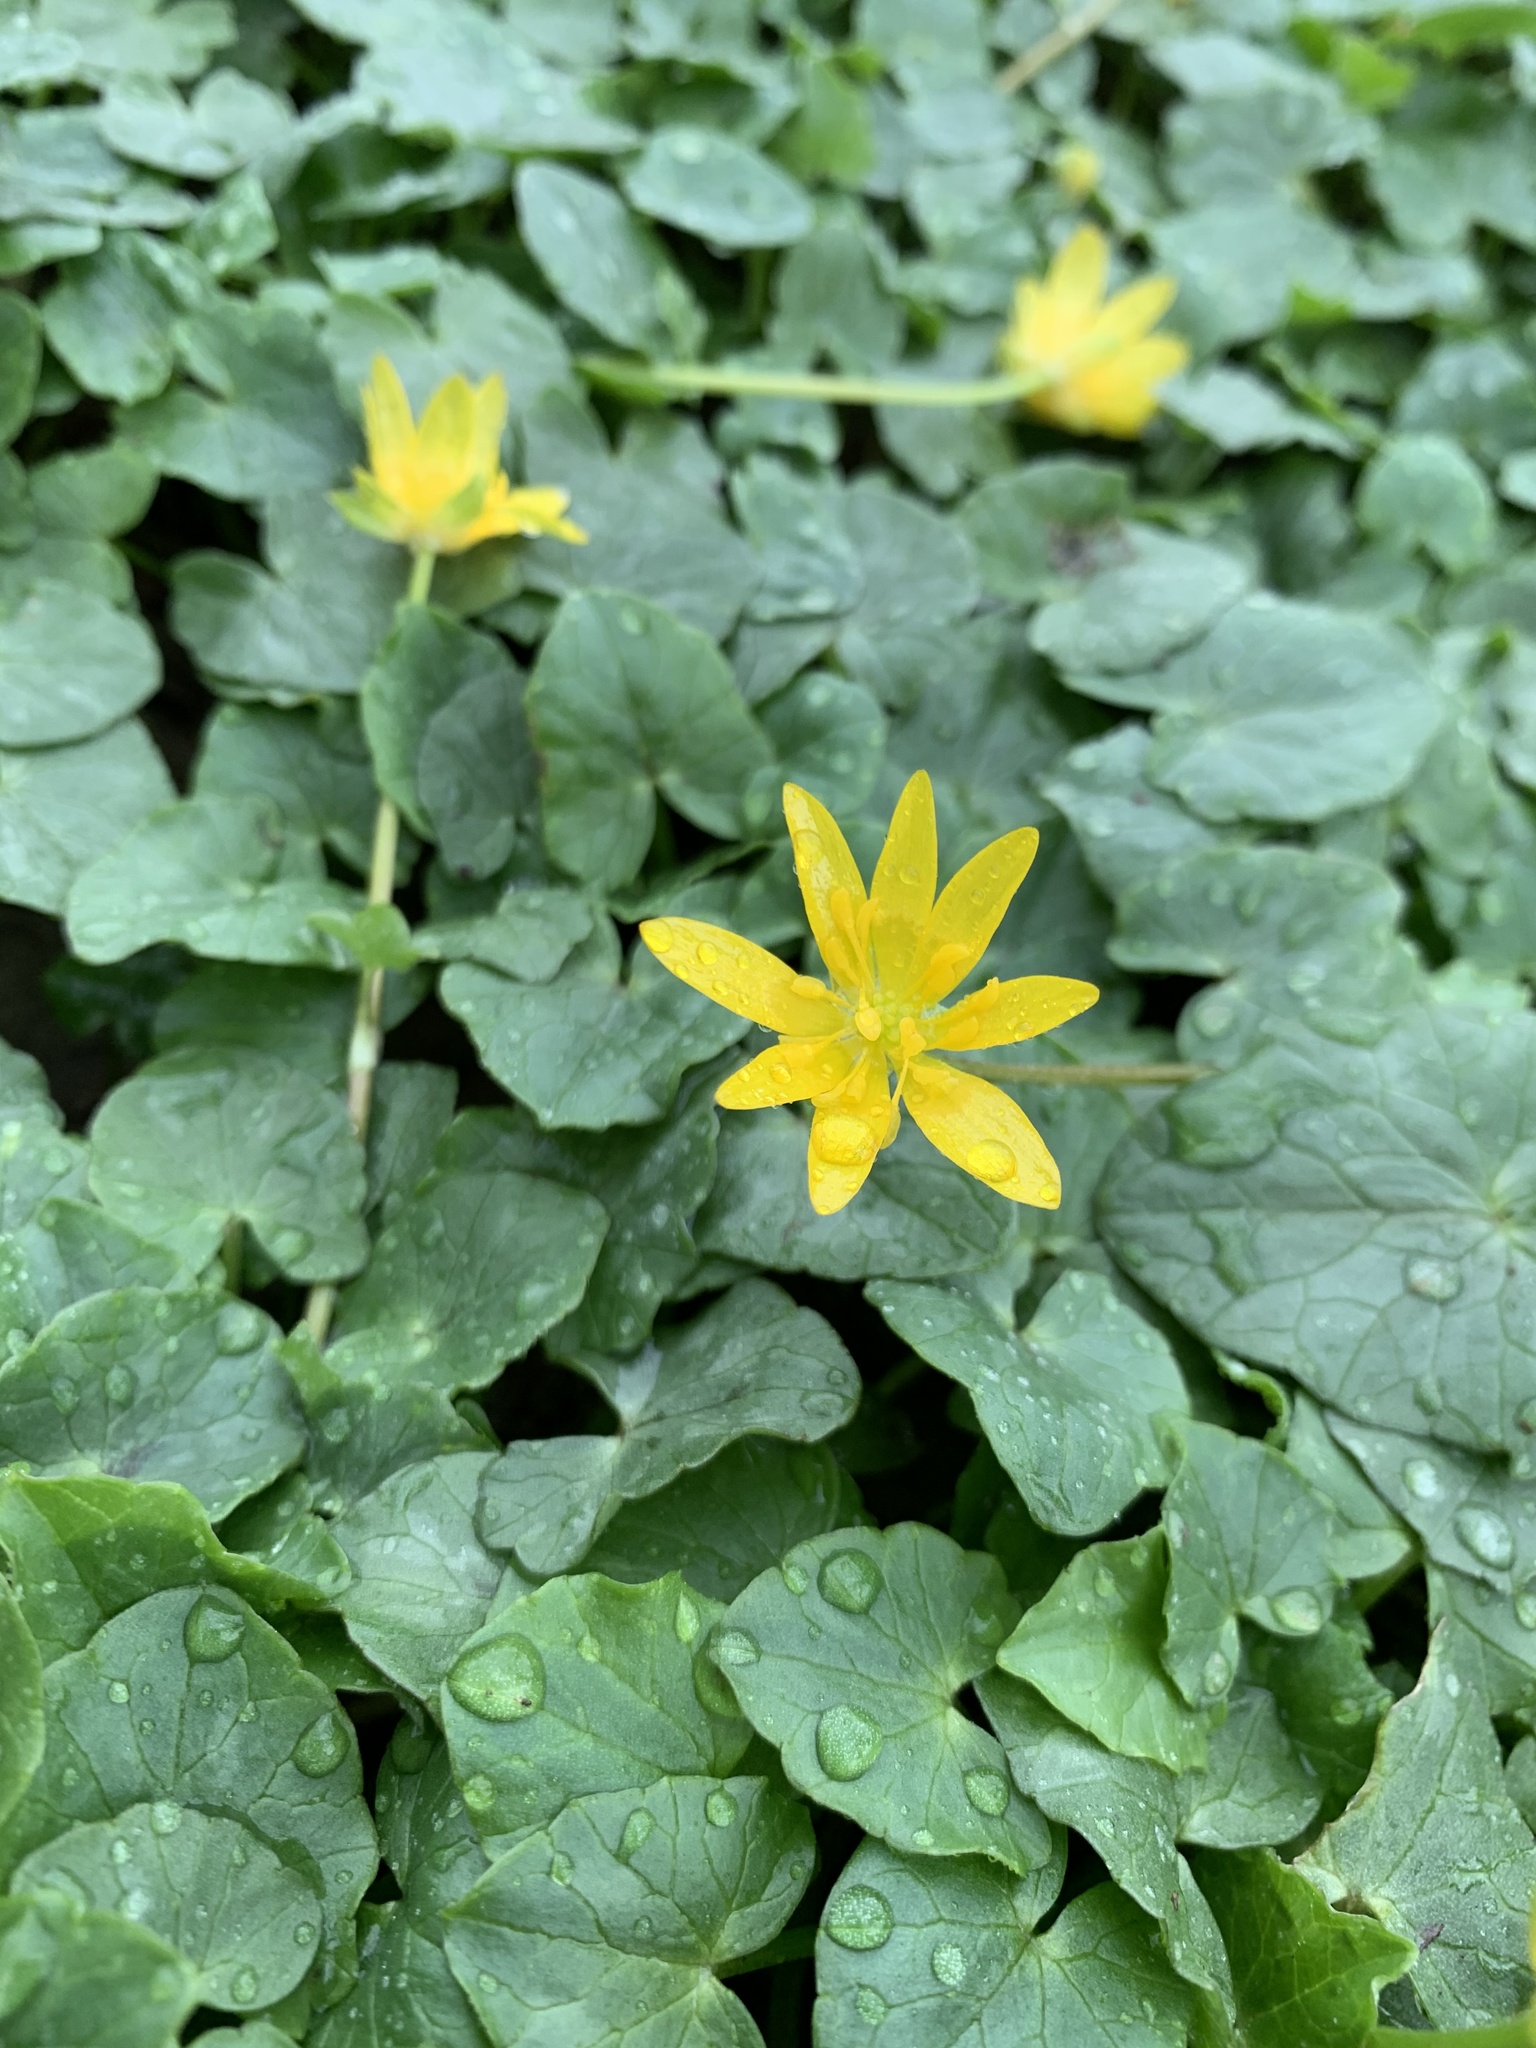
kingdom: Plantae
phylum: Tracheophyta
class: Magnoliopsida
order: Ranunculales
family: Ranunculaceae
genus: Ficaria
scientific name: Ficaria verna
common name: Lesser celandine
